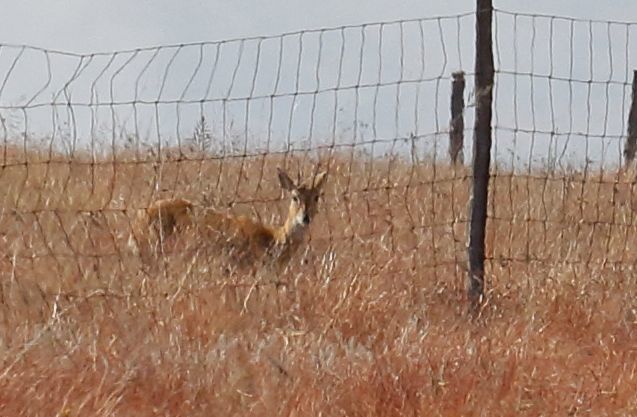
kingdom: Animalia
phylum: Chordata
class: Mammalia
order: Artiodactyla
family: Bovidae
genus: Ourebia
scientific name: Ourebia ourebi
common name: Oribi
